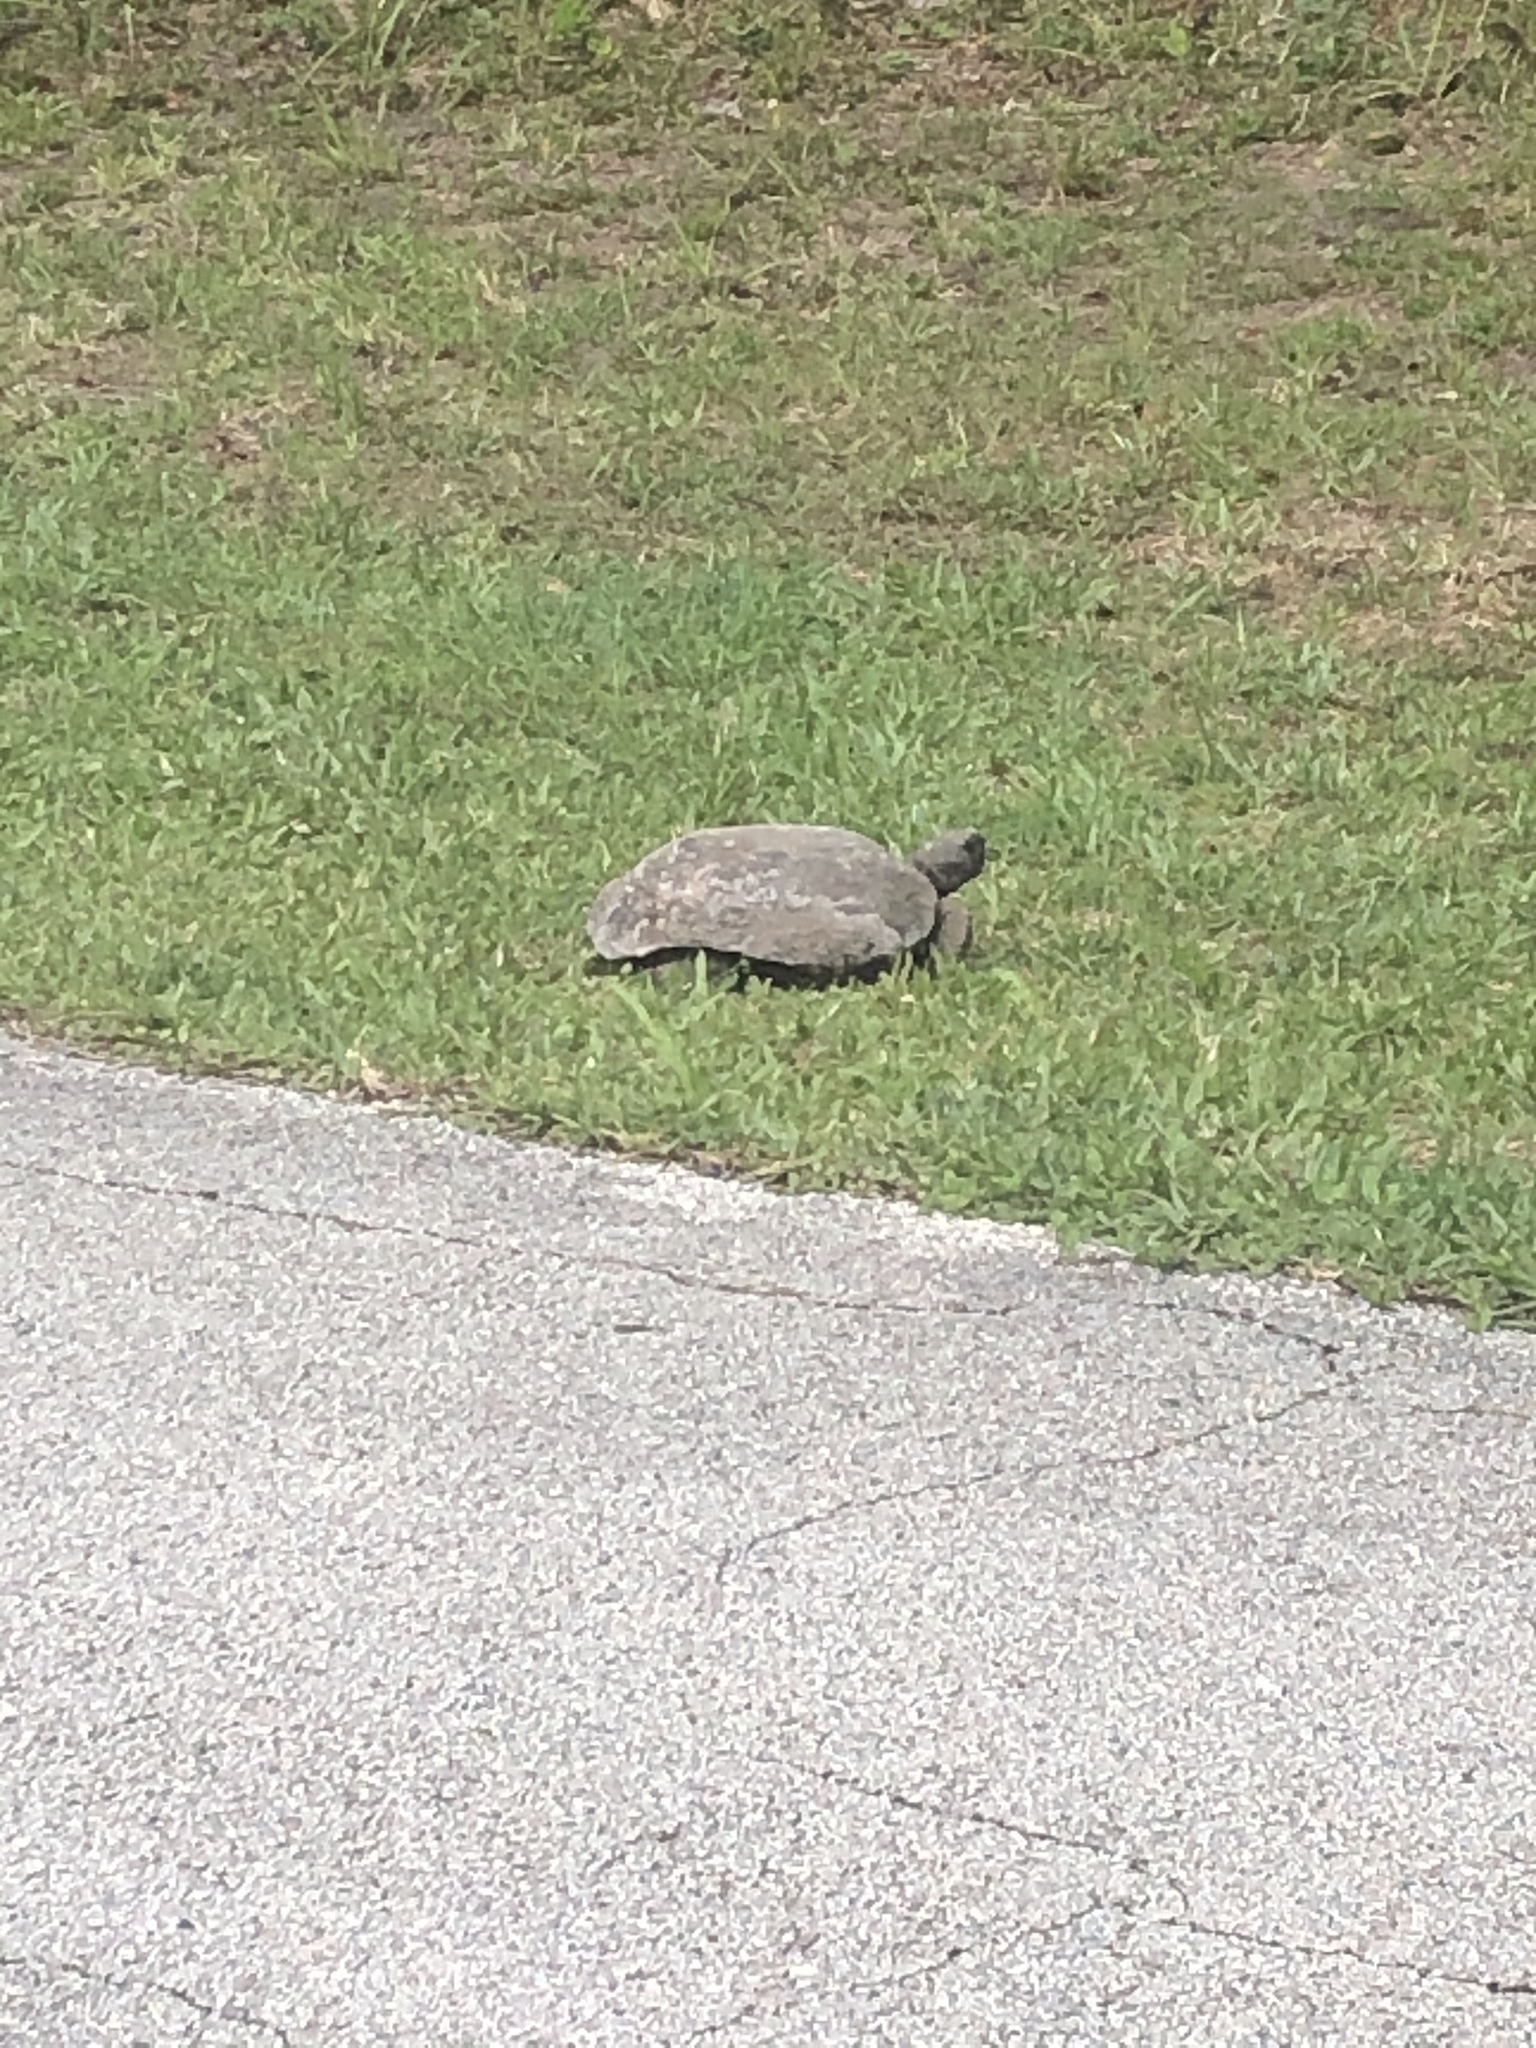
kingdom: Animalia
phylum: Chordata
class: Testudines
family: Testudinidae
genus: Gopherus
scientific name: Gopherus polyphemus
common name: Florida gopher tortoise
